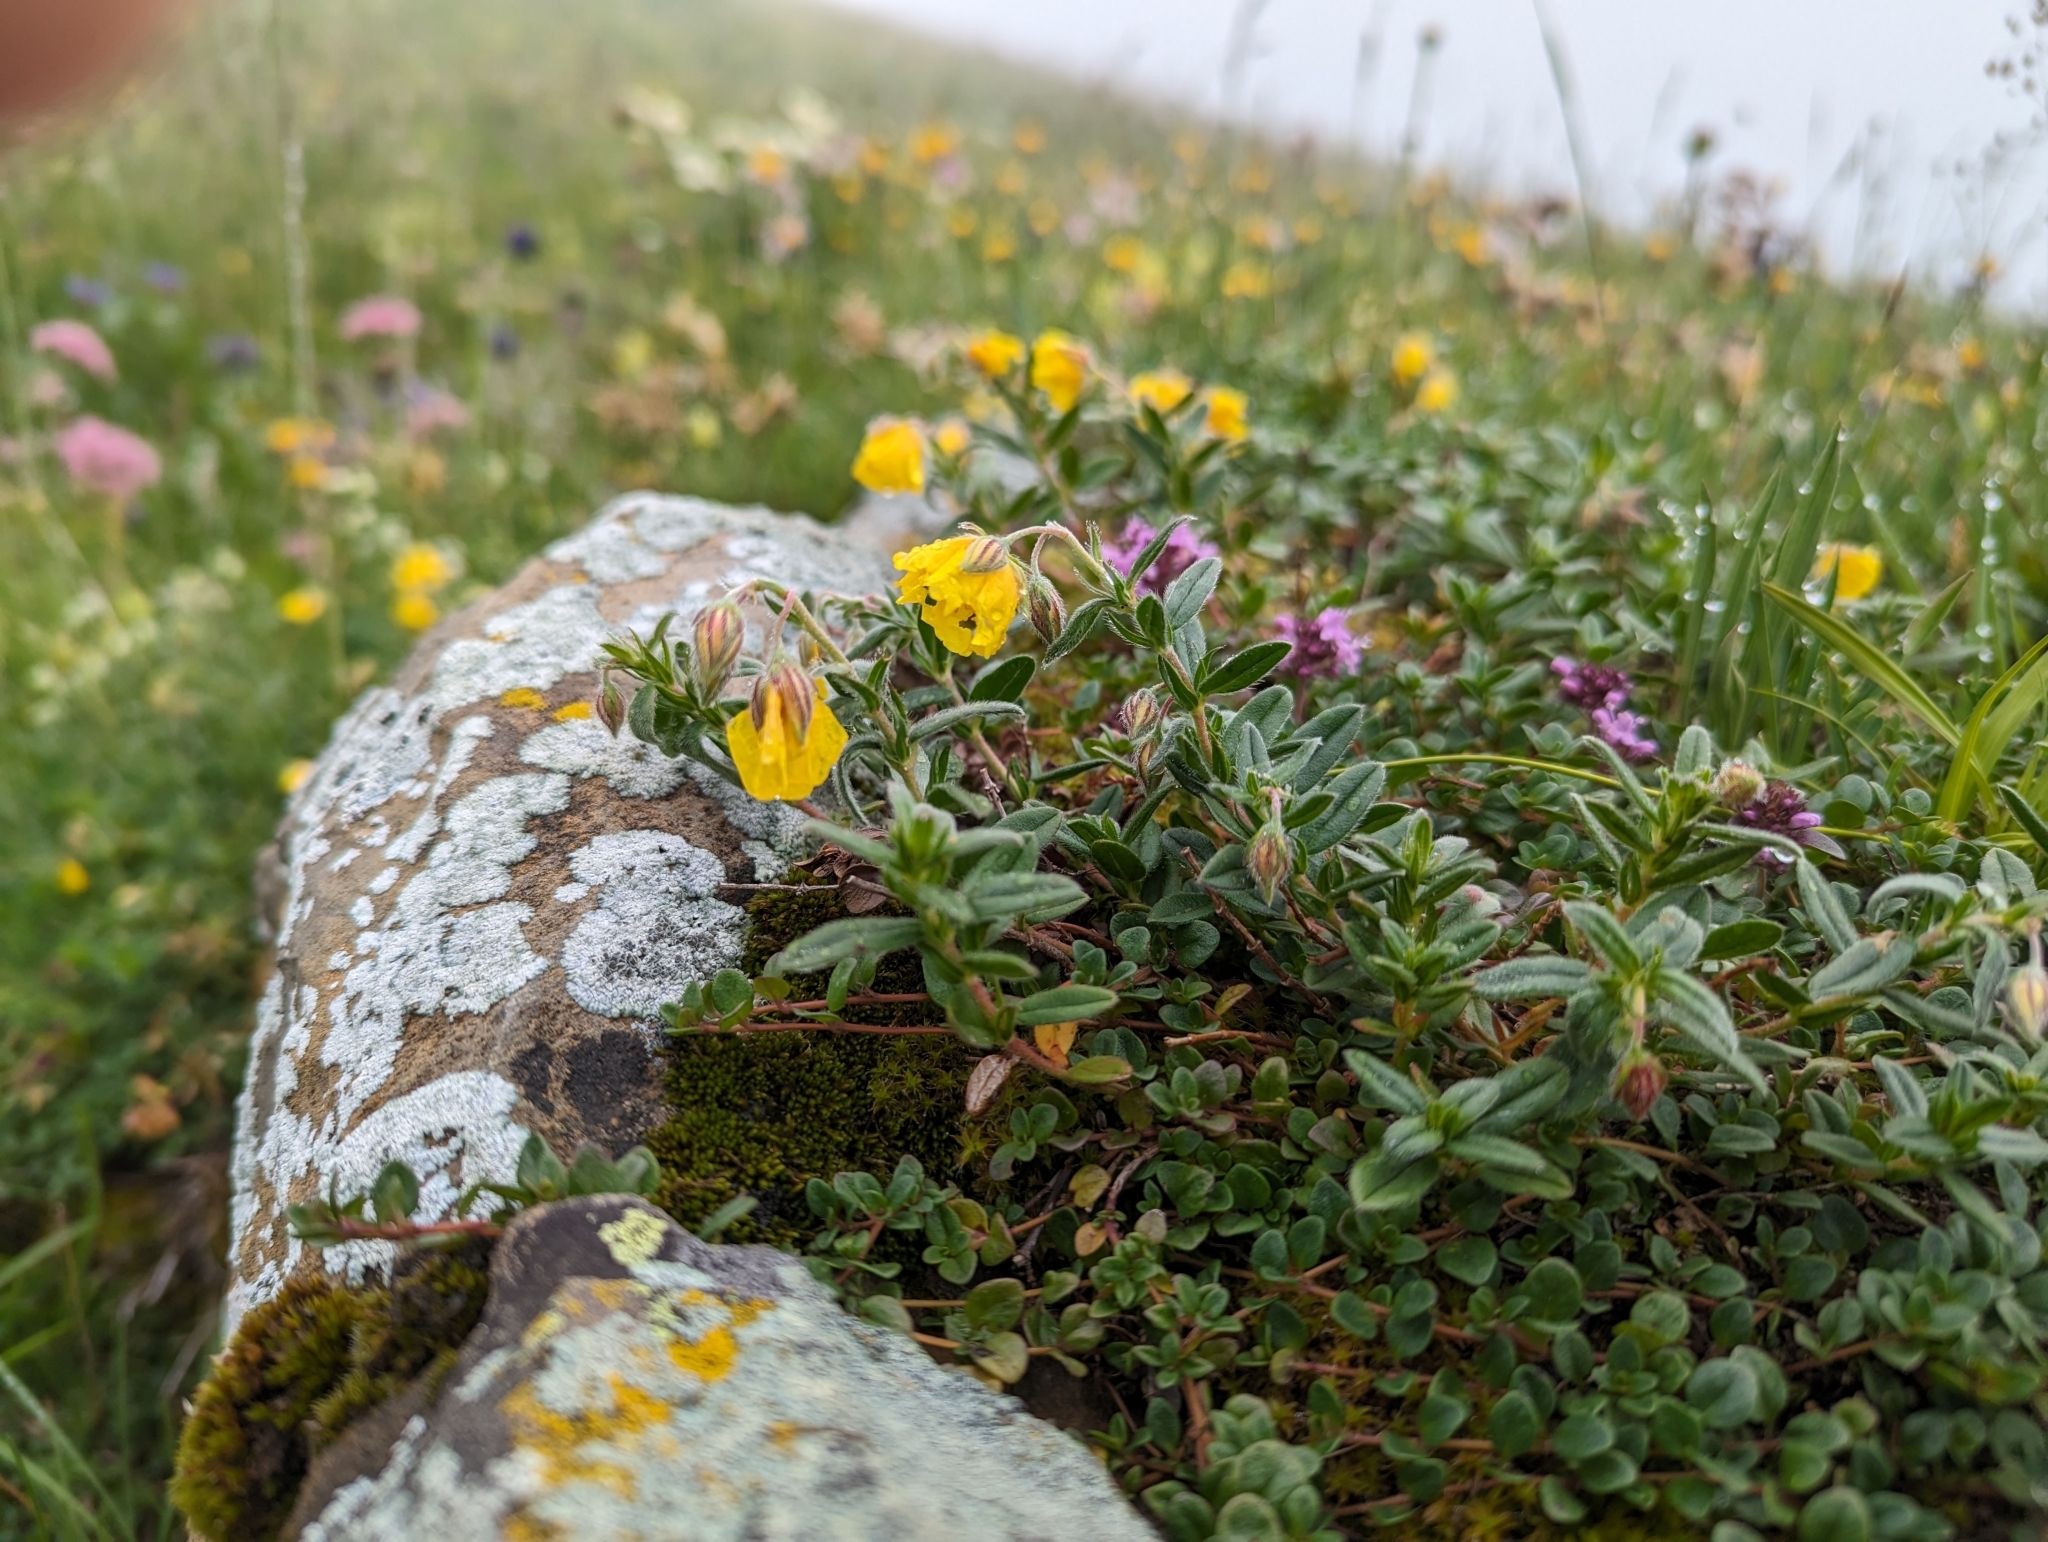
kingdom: Plantae
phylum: Tracheophyta
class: Magnoliopsida
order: Malvales
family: Cistaceae
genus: Helianthemum
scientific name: Helianthemum nummularium
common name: Common rock-rose
